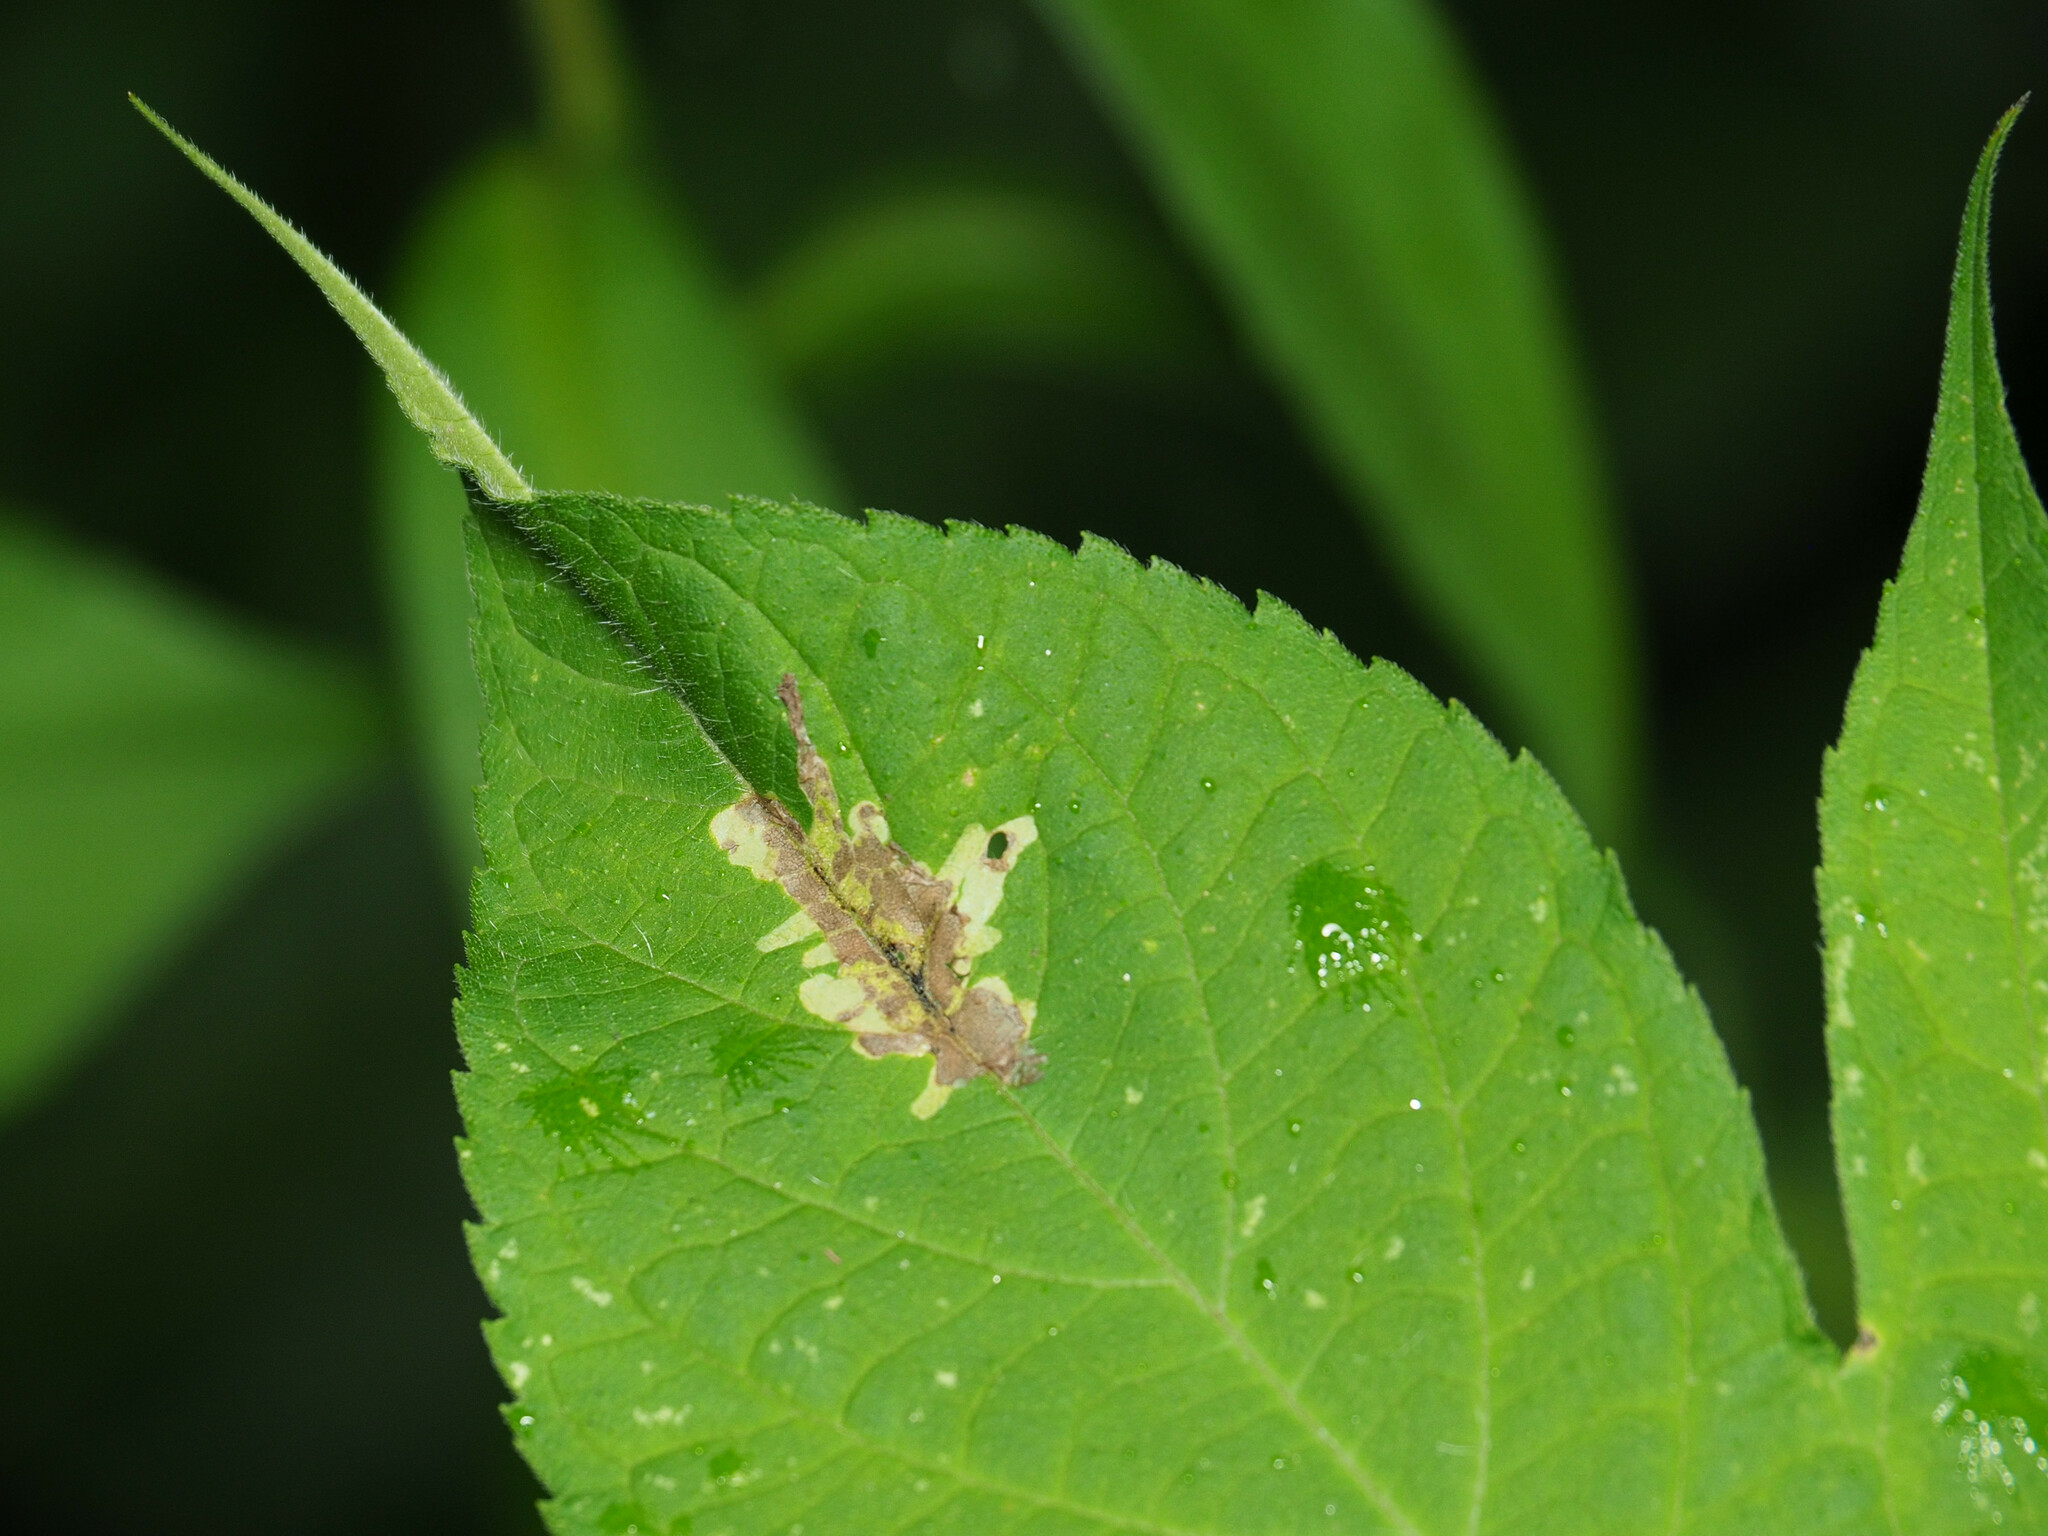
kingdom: Animalia
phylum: Arthropoda
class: Insecta
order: Diptera
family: Agromyzidae
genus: Calycomyza
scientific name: Calycomyza platyptera
